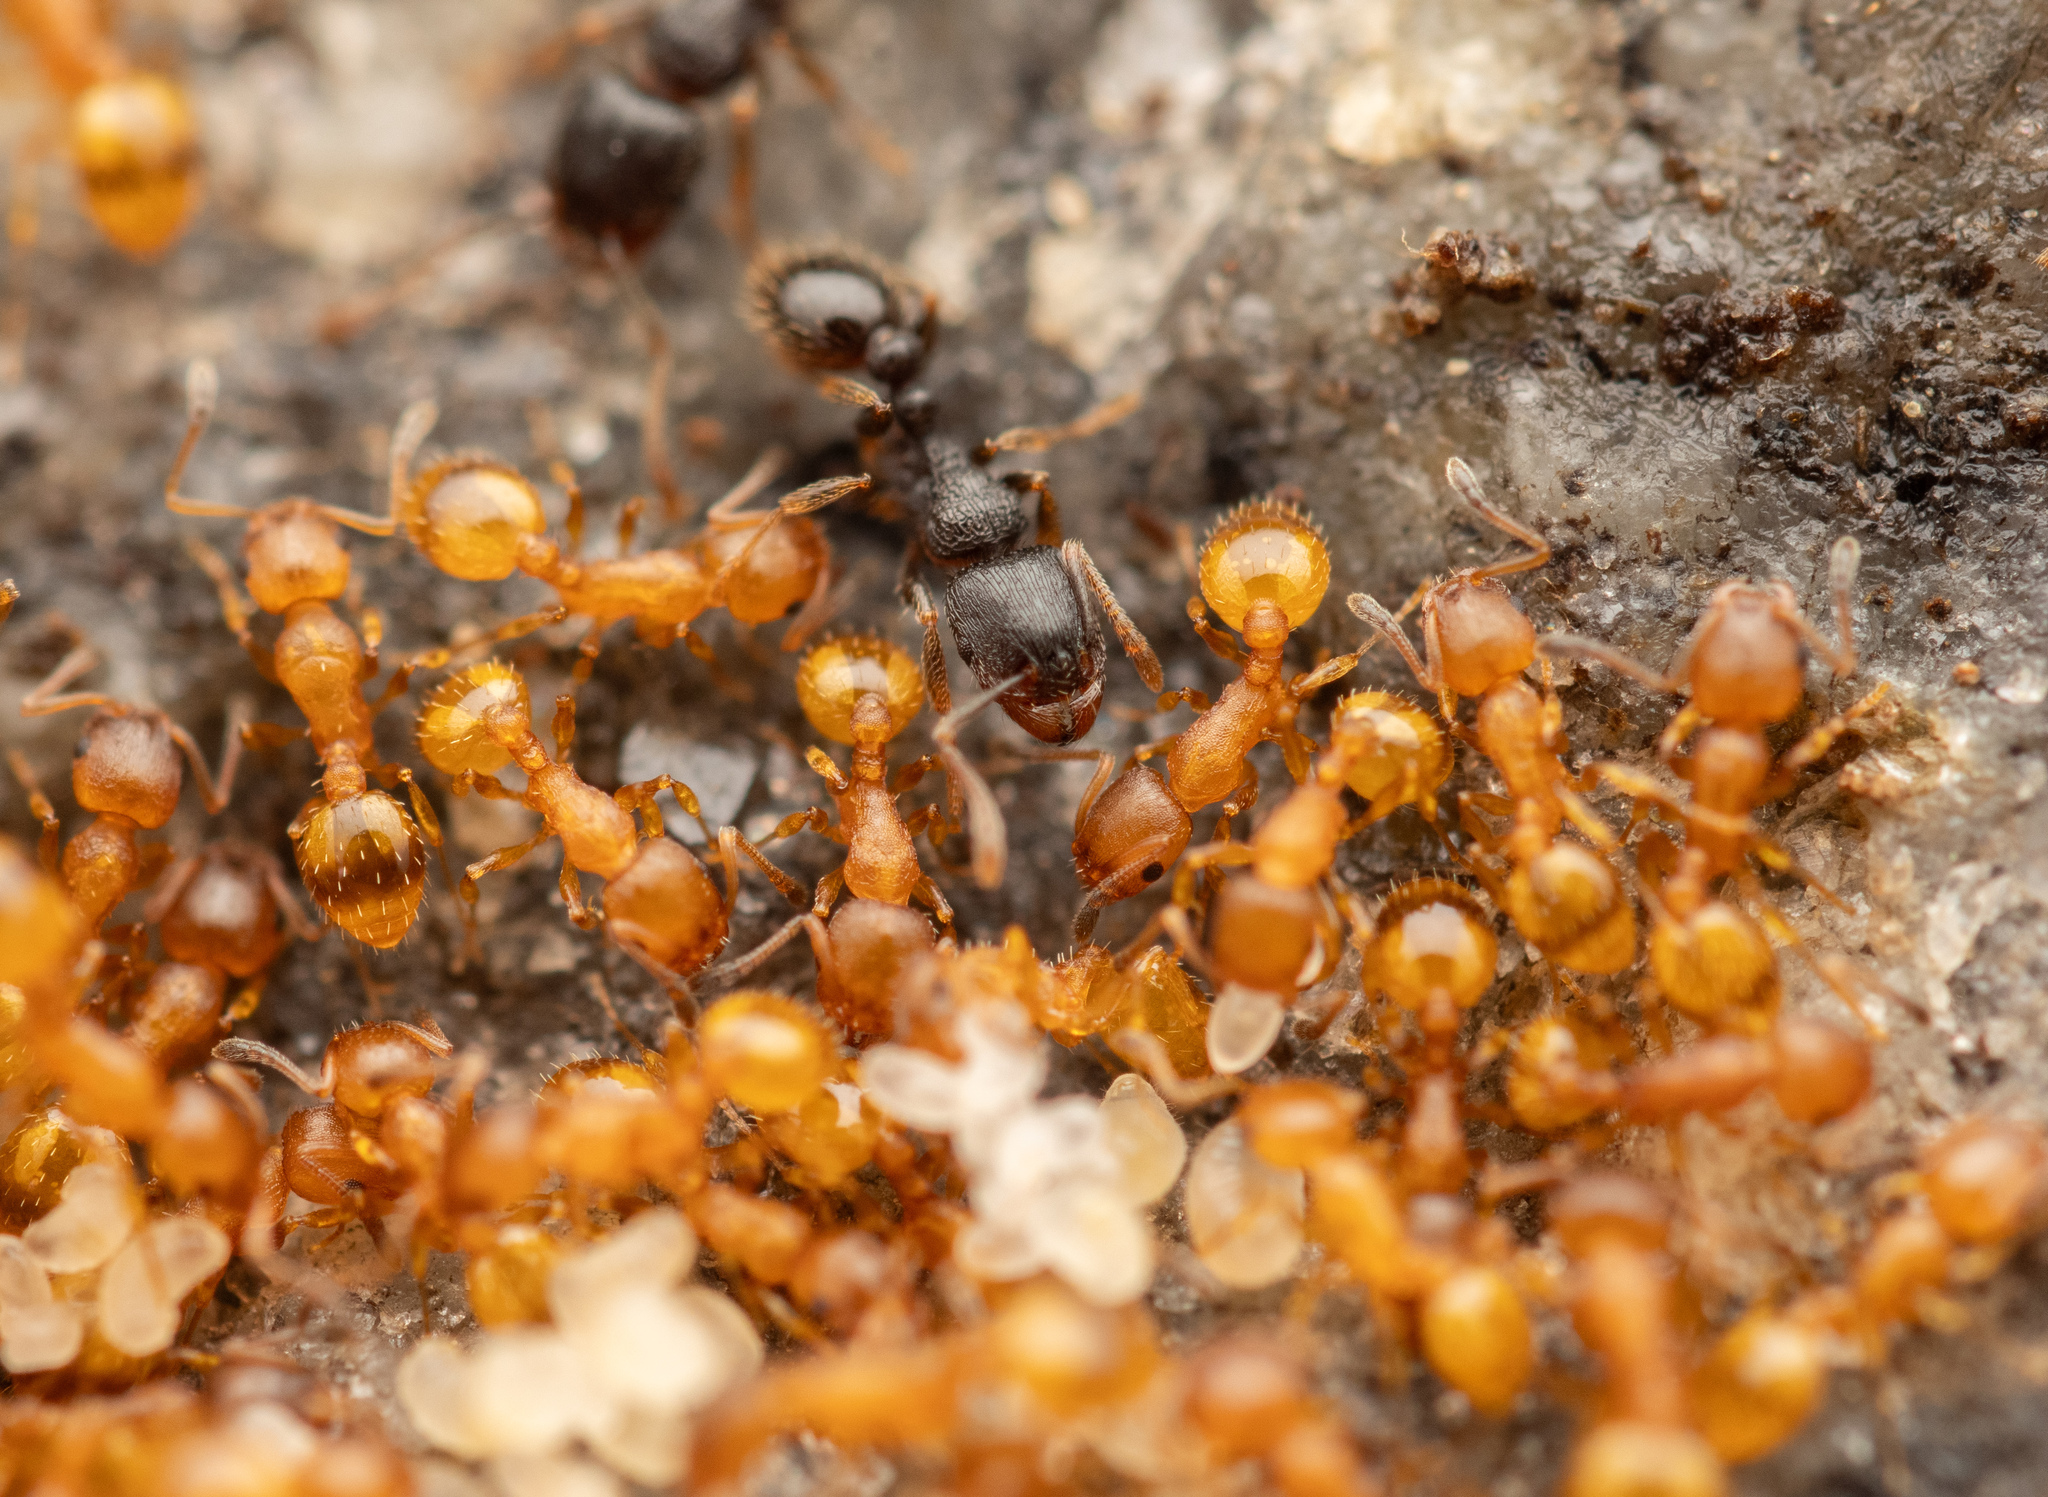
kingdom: Animalia
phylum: Arthropoda
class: Insecta
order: Hymenoptera
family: Formicidae
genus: Leptothorax
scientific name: Leptothorax unifasciatus
